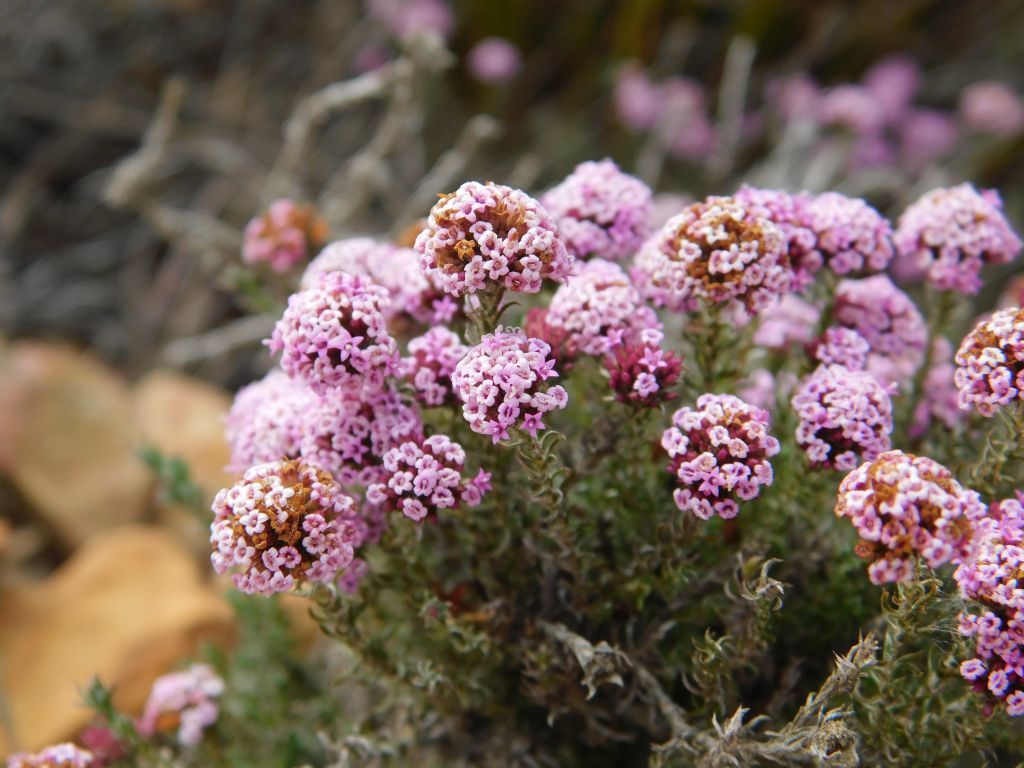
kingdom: Plantae
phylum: Tracheophyta
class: Magnoliopsida
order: Asterales
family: Asteraceae
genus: Stoebe
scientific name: Stoebe capitata
